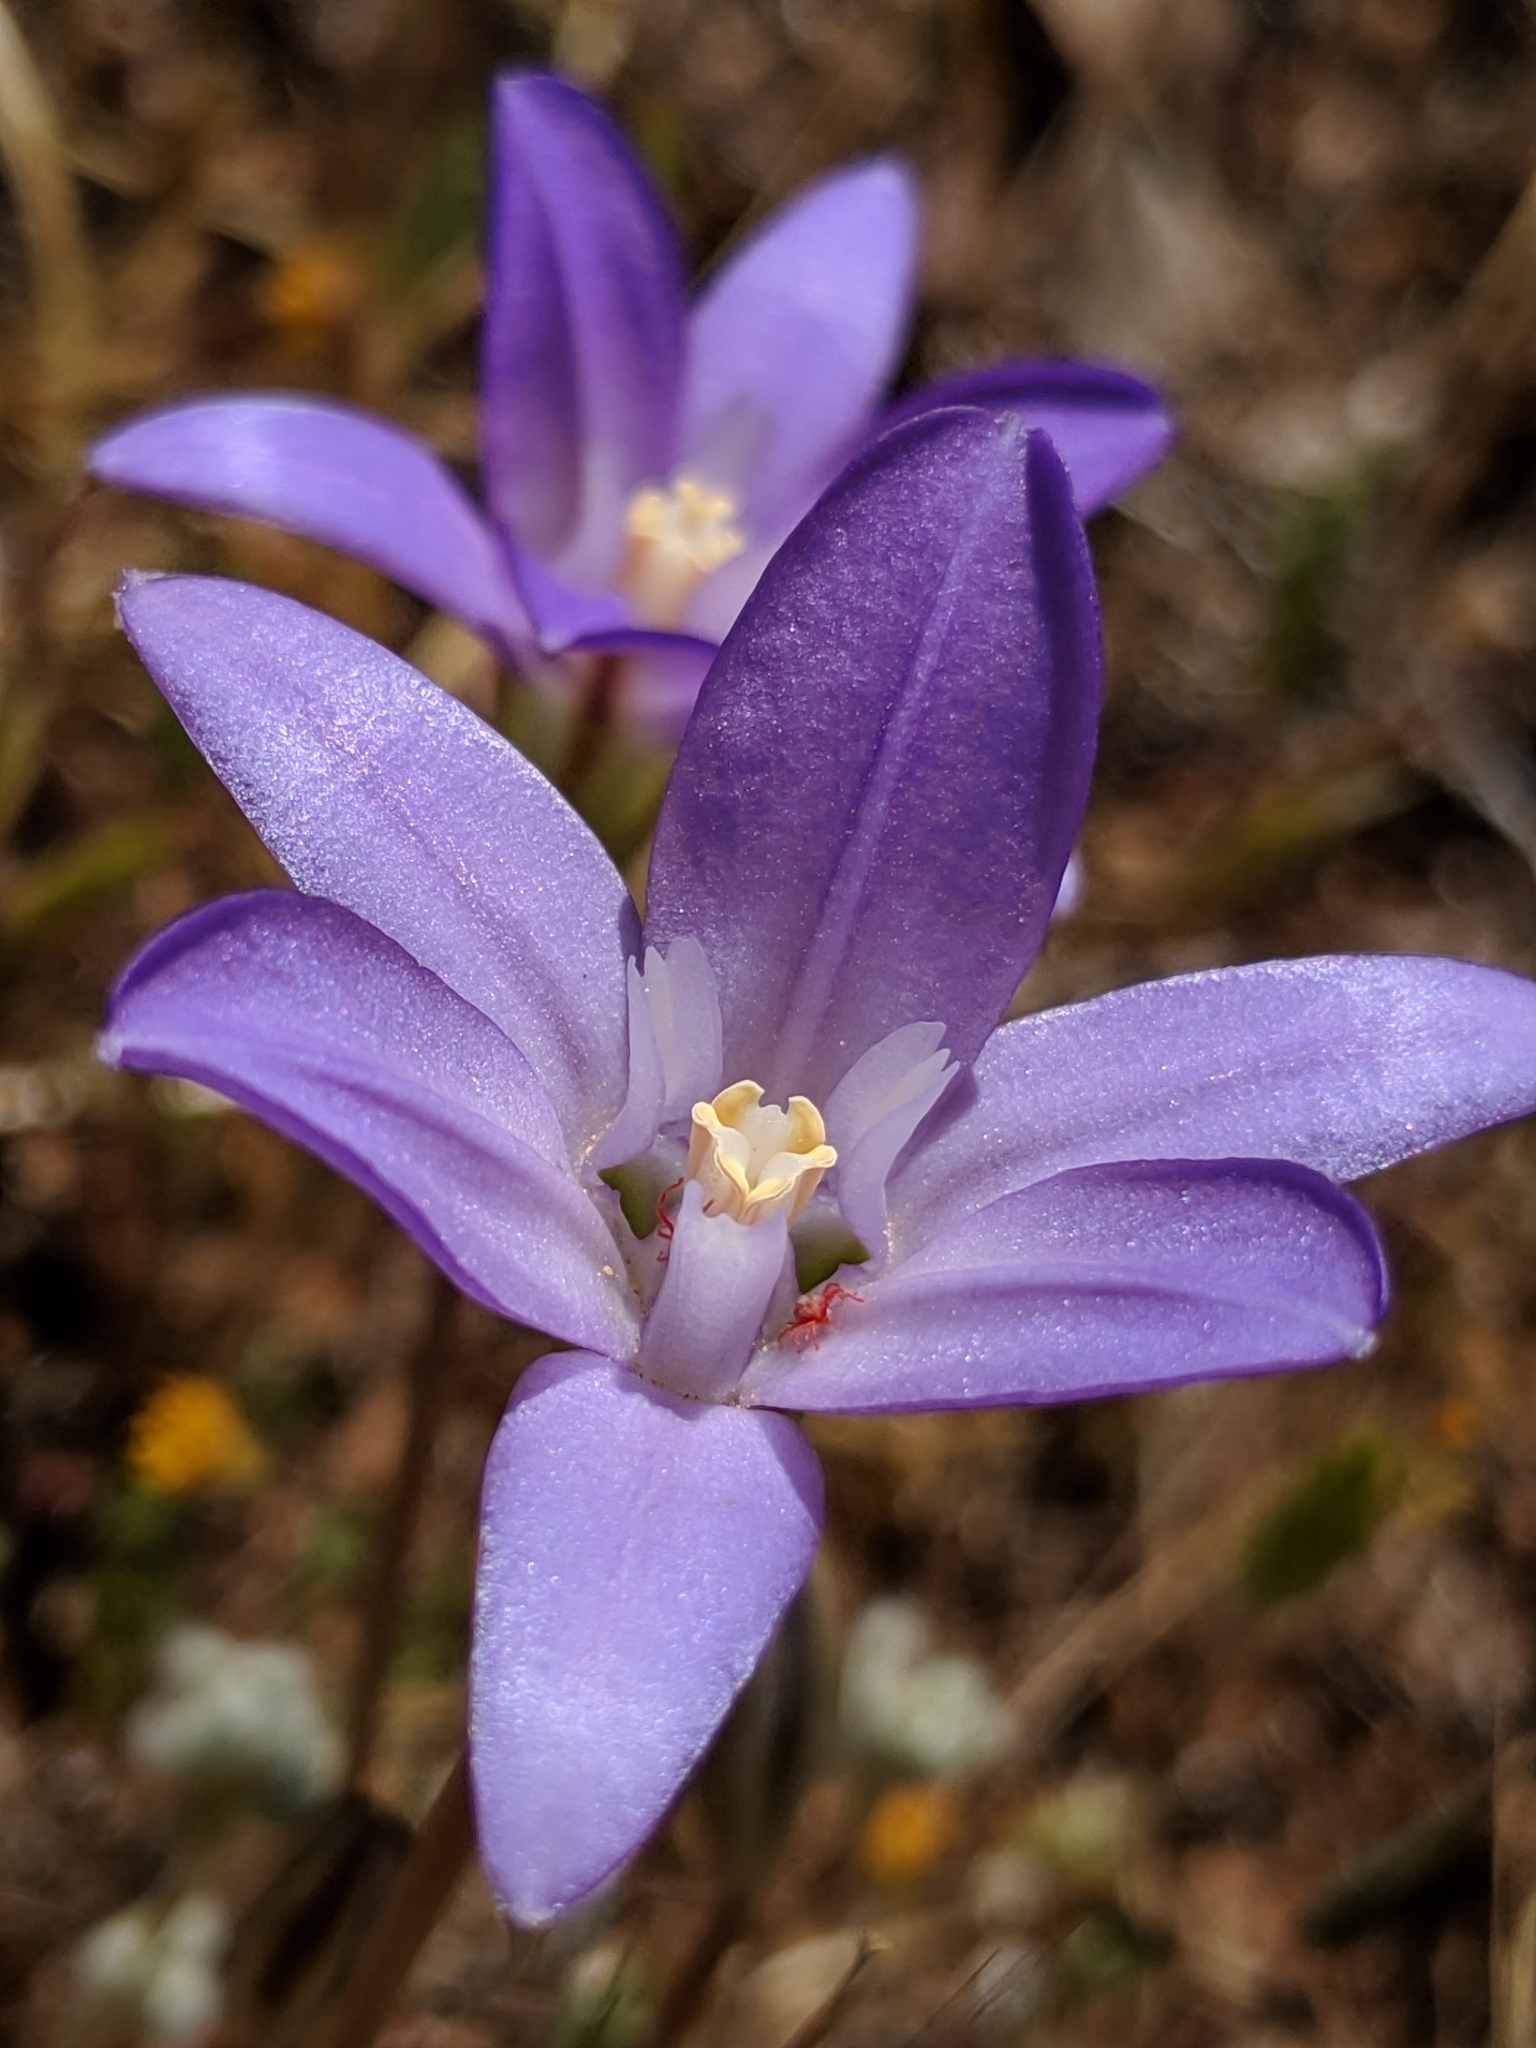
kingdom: Plantae
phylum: Tracheophyta
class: Liliopsida
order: Asparagales
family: Asparagaceae
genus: Brodiaea
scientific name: Brodiaea terrestris
